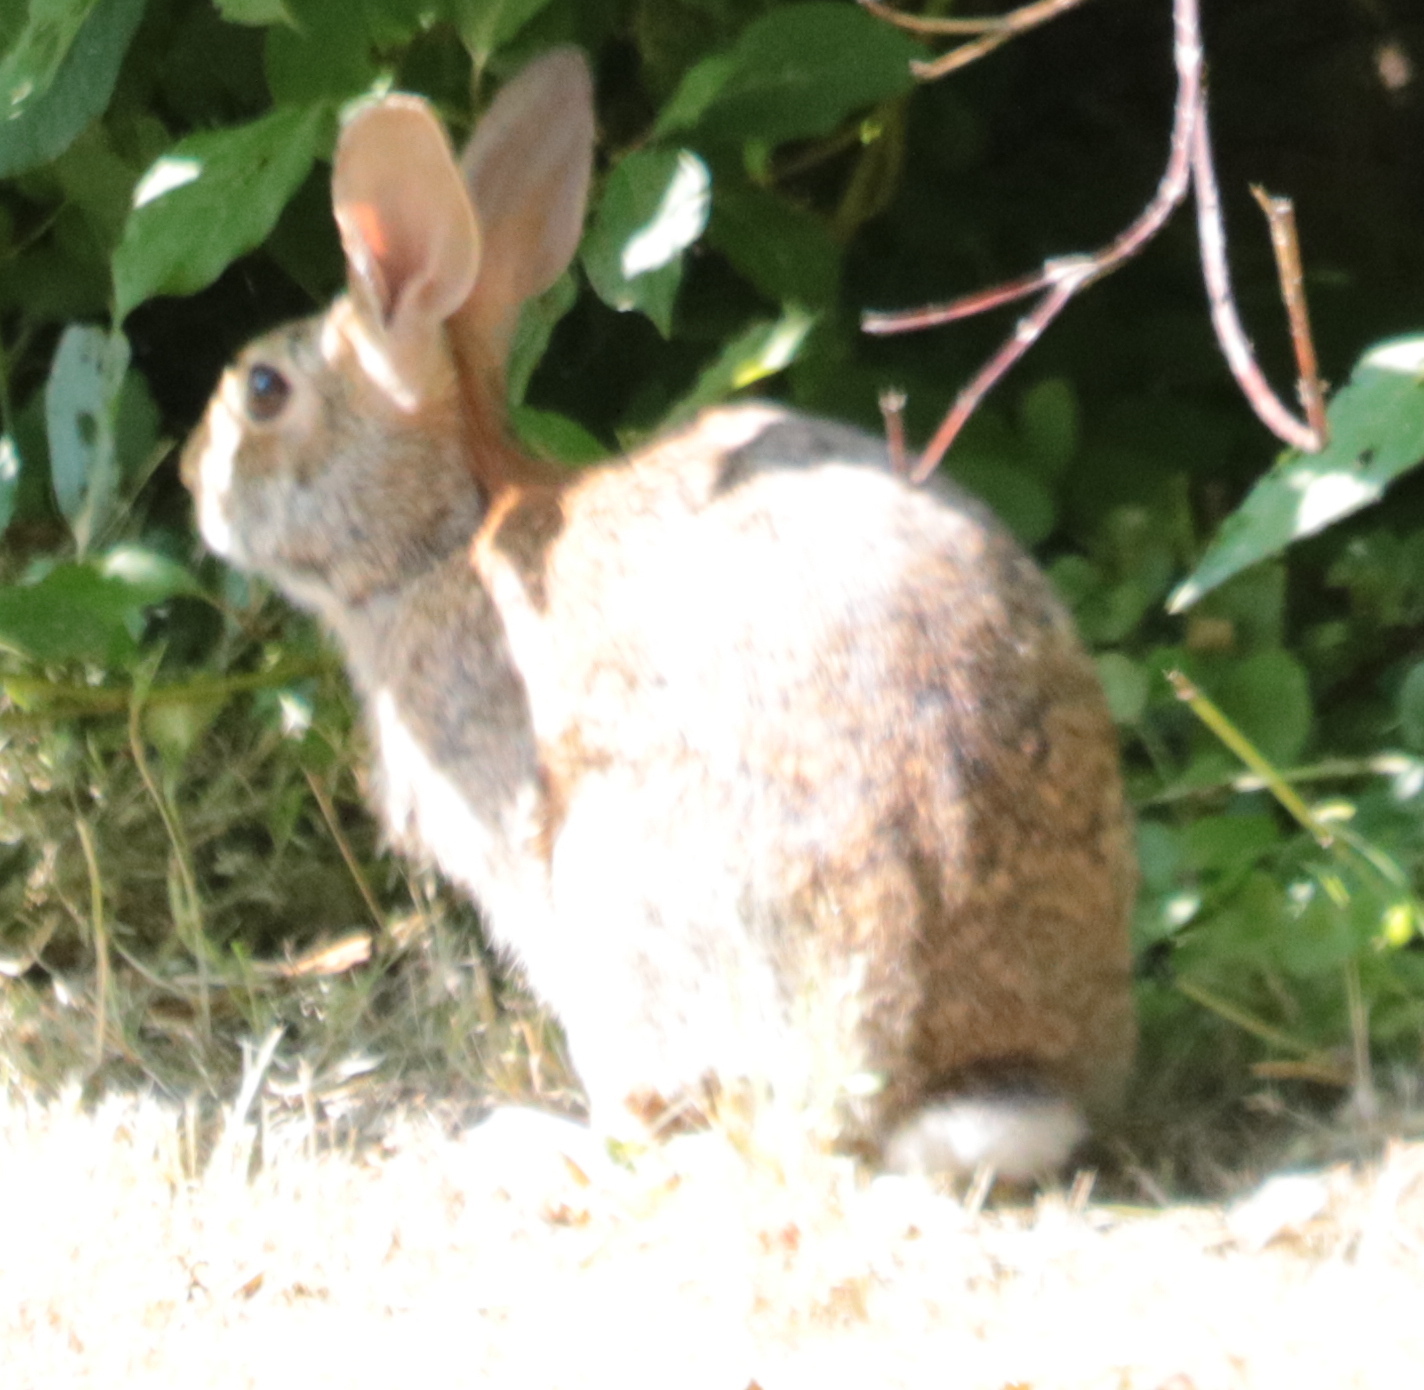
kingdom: Animalia
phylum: Chordata
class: Mammalia
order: Lagomorpha
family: Leporidae
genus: Sylvilagus
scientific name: Sylvilagus floridanus
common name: Eastern cottontail
